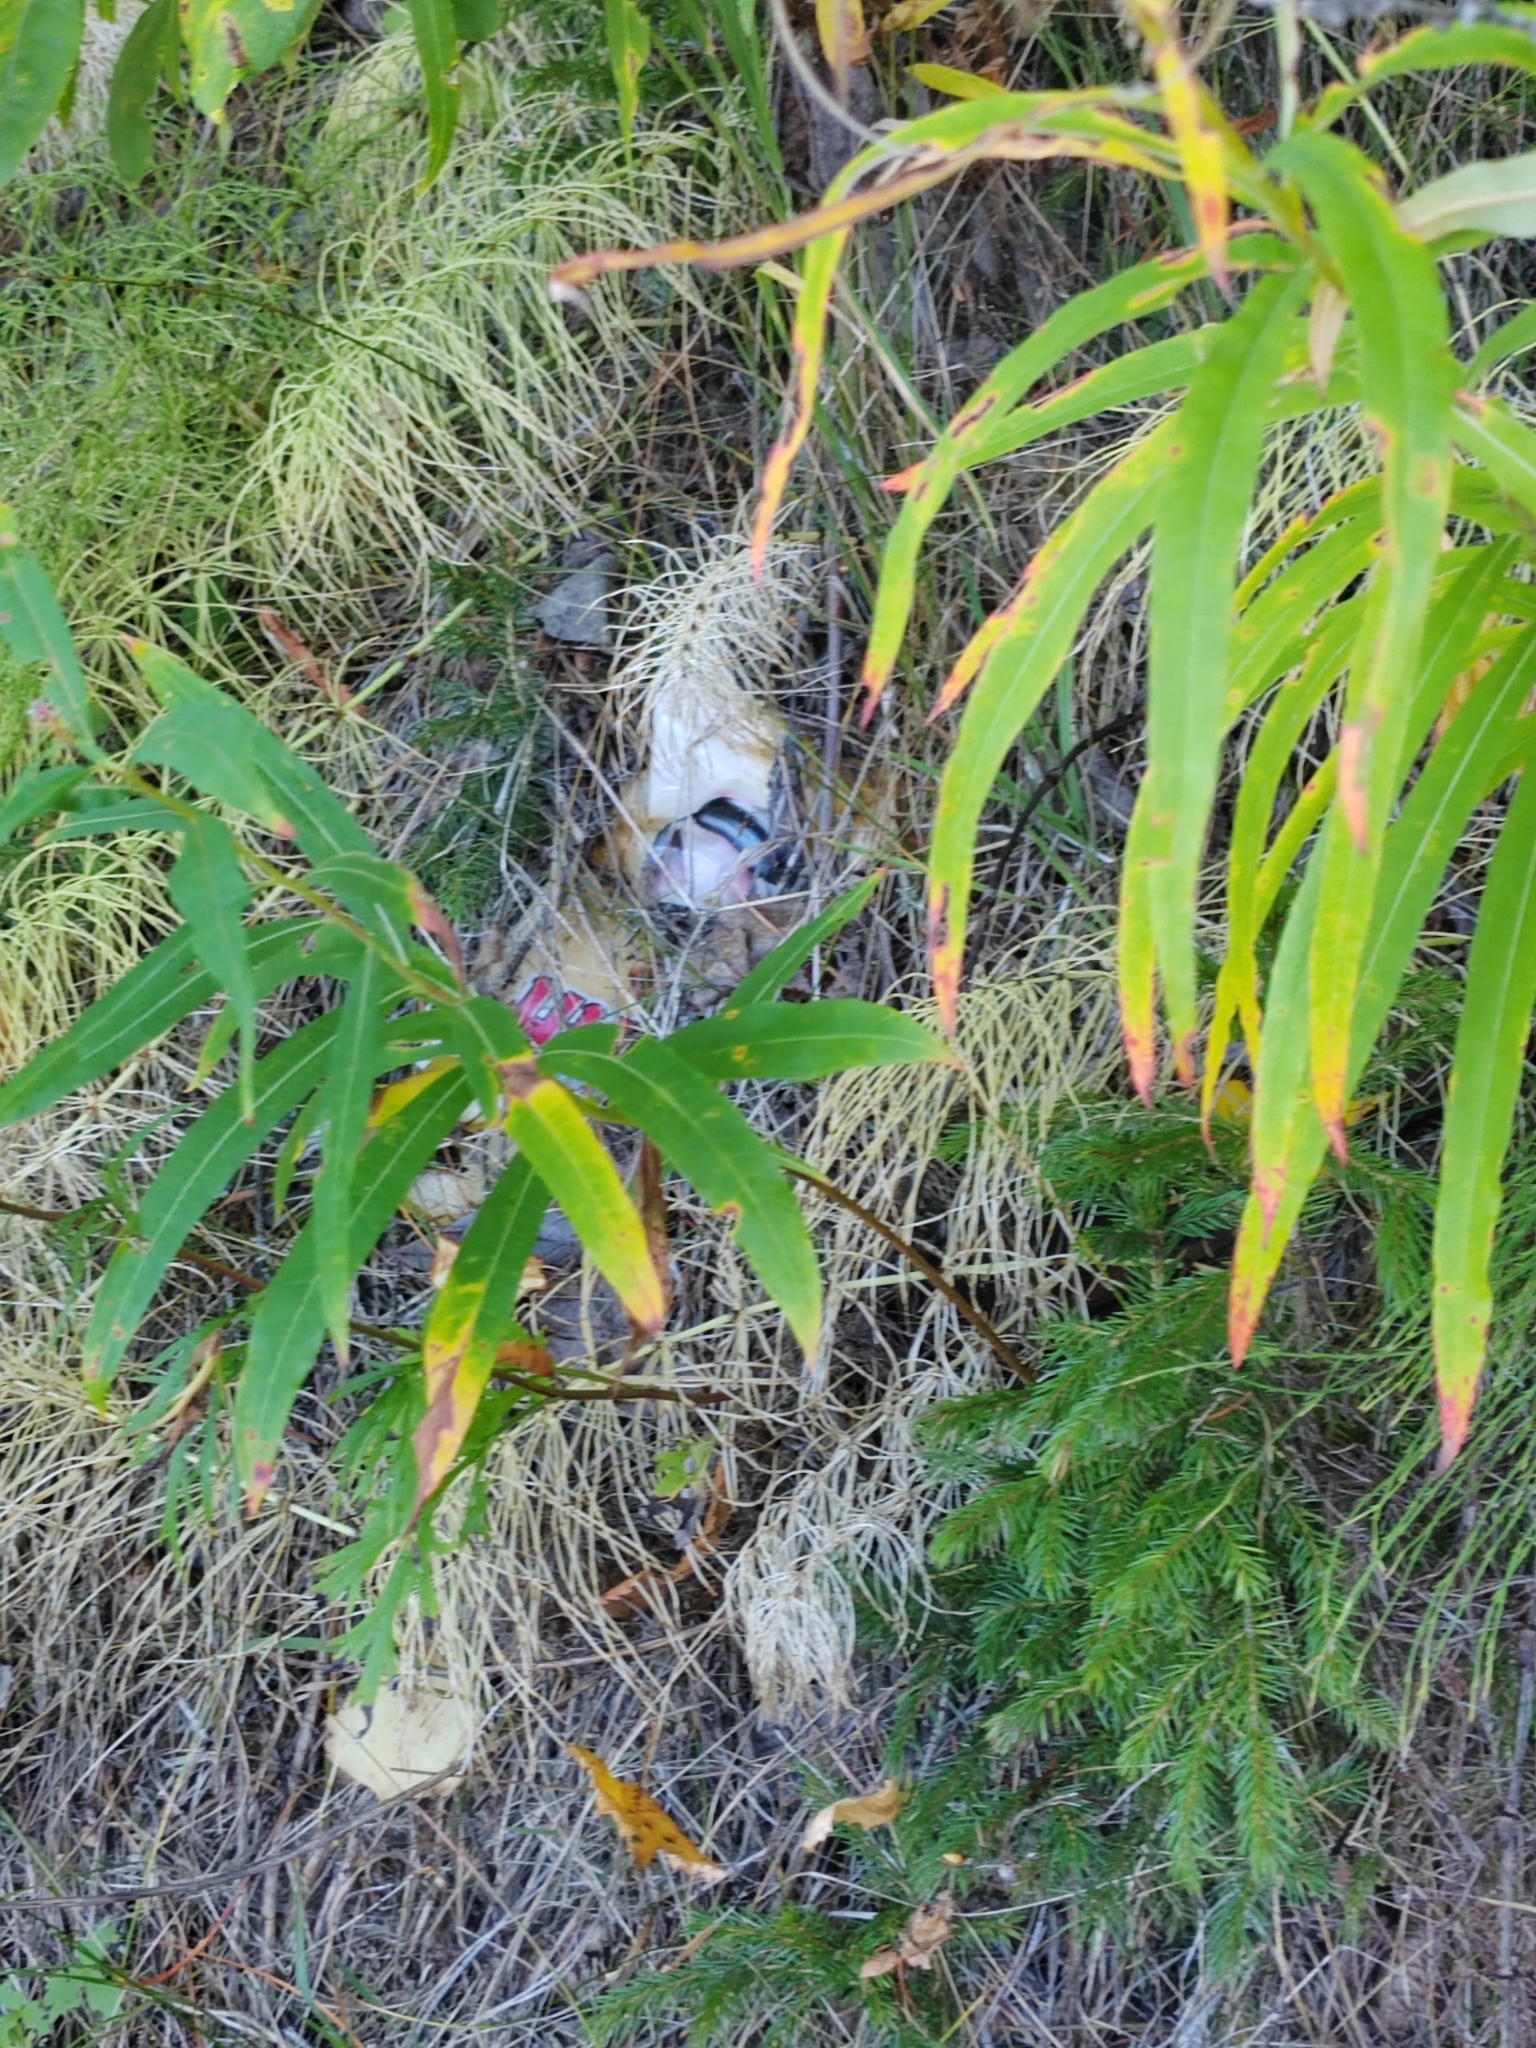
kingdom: Plantae
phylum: Tracheophyta
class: Magnoliopsida
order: Myrtales
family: Onagraceae
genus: Chamaenerion
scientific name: Chamaenerion angustifolium
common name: Fireweed
